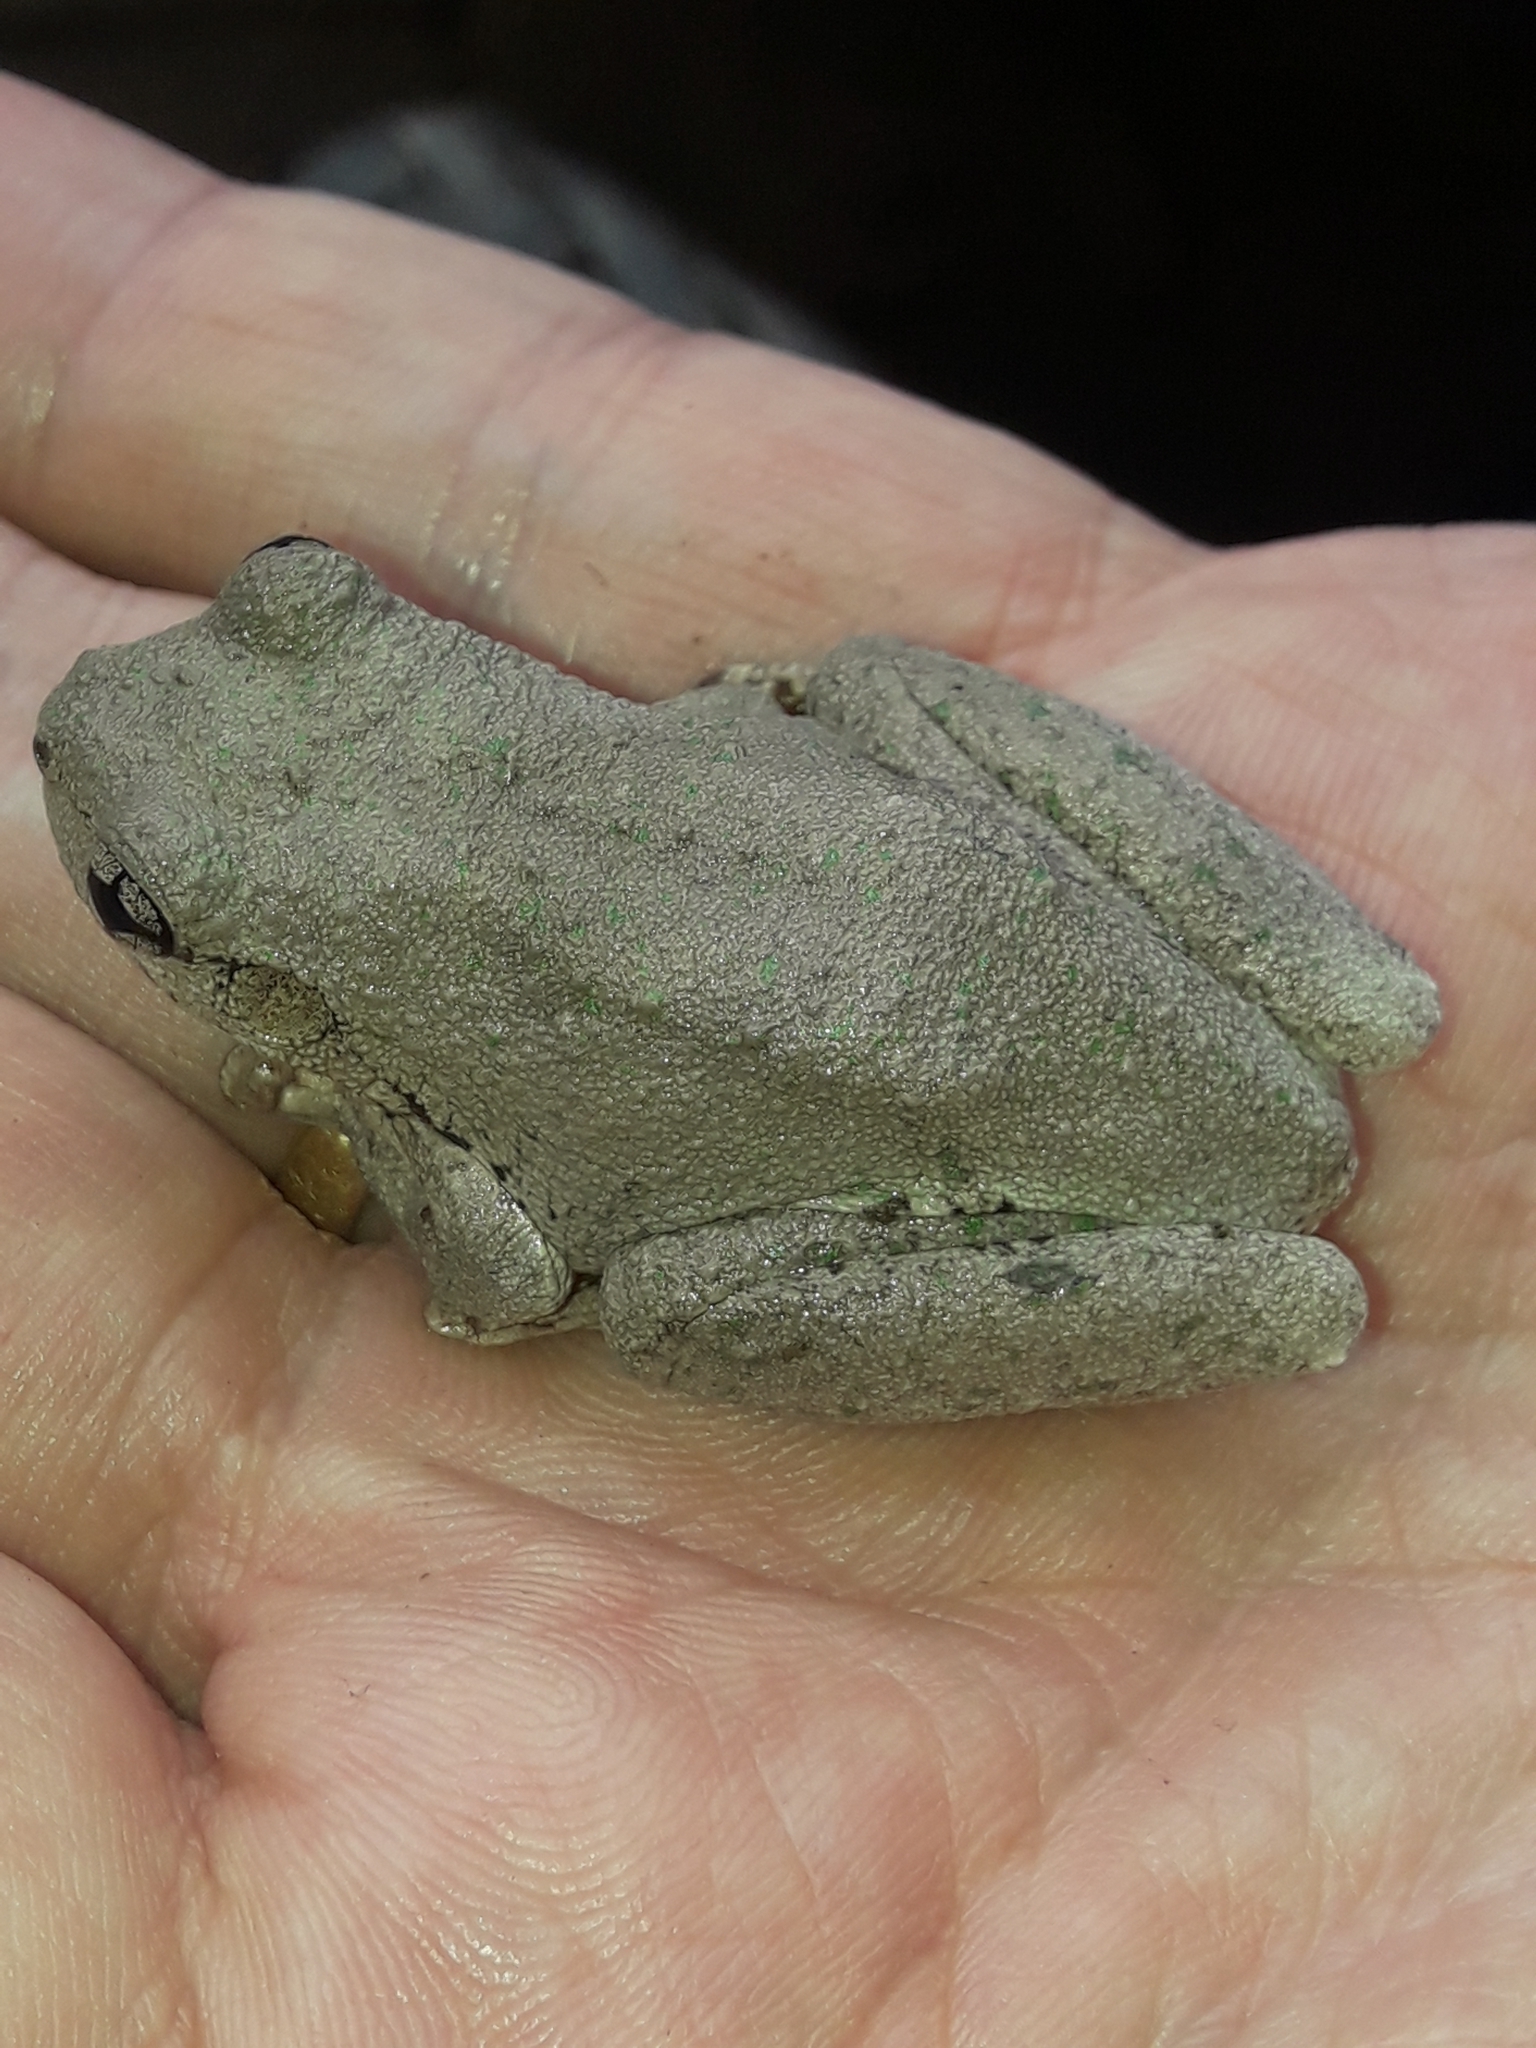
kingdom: Animalia
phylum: Chordata
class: Amphibia
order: Anura
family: Pelodryadidae
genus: Litoria
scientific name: Litoria peronii
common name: Emerald spotted treefrog
